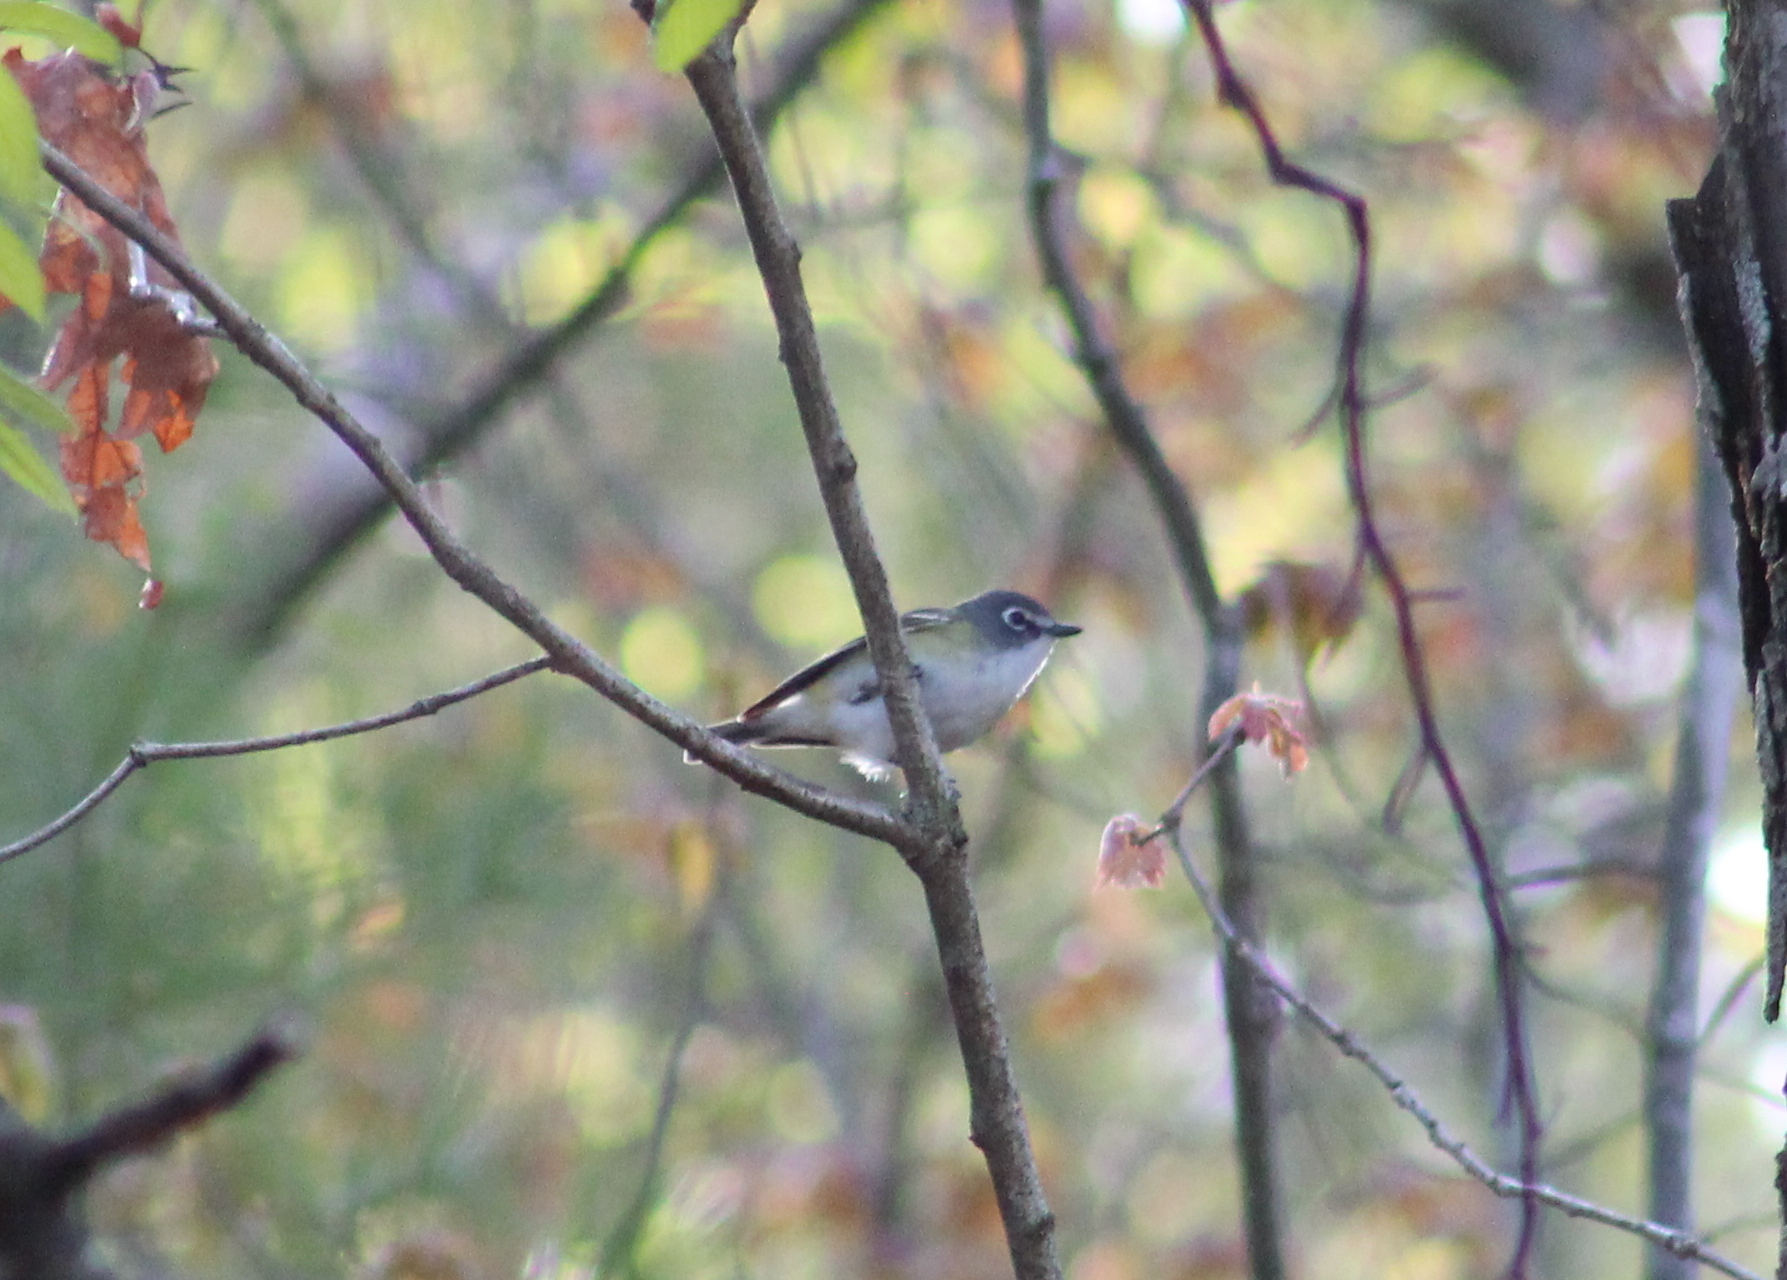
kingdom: Animalia
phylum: Chordata
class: Aves
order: Passeriformes
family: Vireonidae
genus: Vireo
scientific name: Vireo solitarius
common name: Blue-headed vireo
